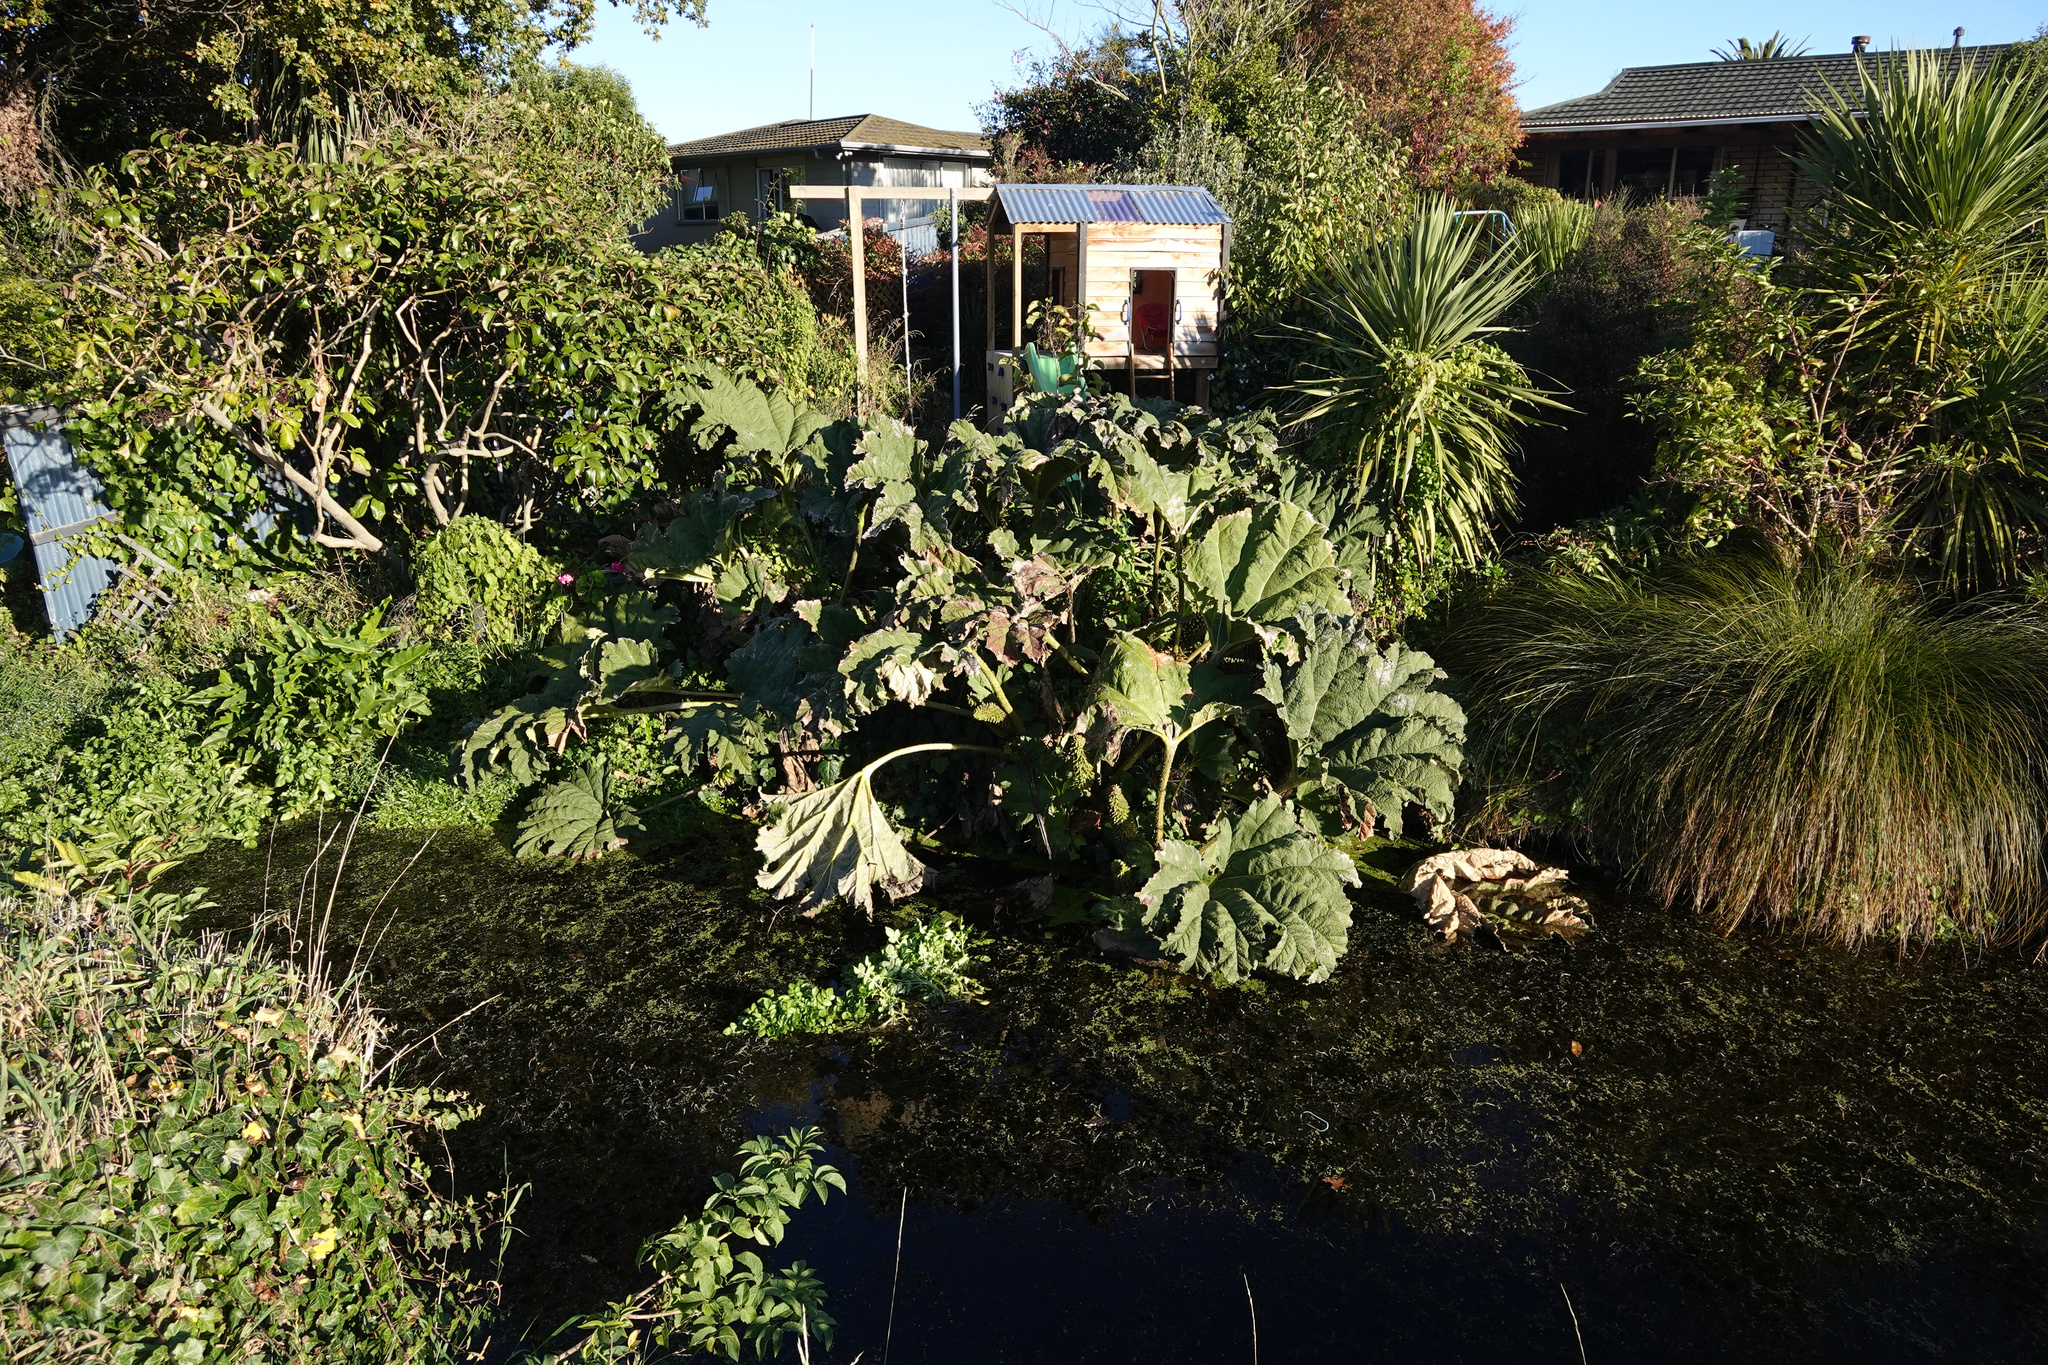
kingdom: Plantae
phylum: Tracheophyta
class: Magnoliopsida
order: Gunnerales
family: Gunneraceae
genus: Gunnera
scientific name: Gunnera tinctoria
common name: Giant-rhubarb
